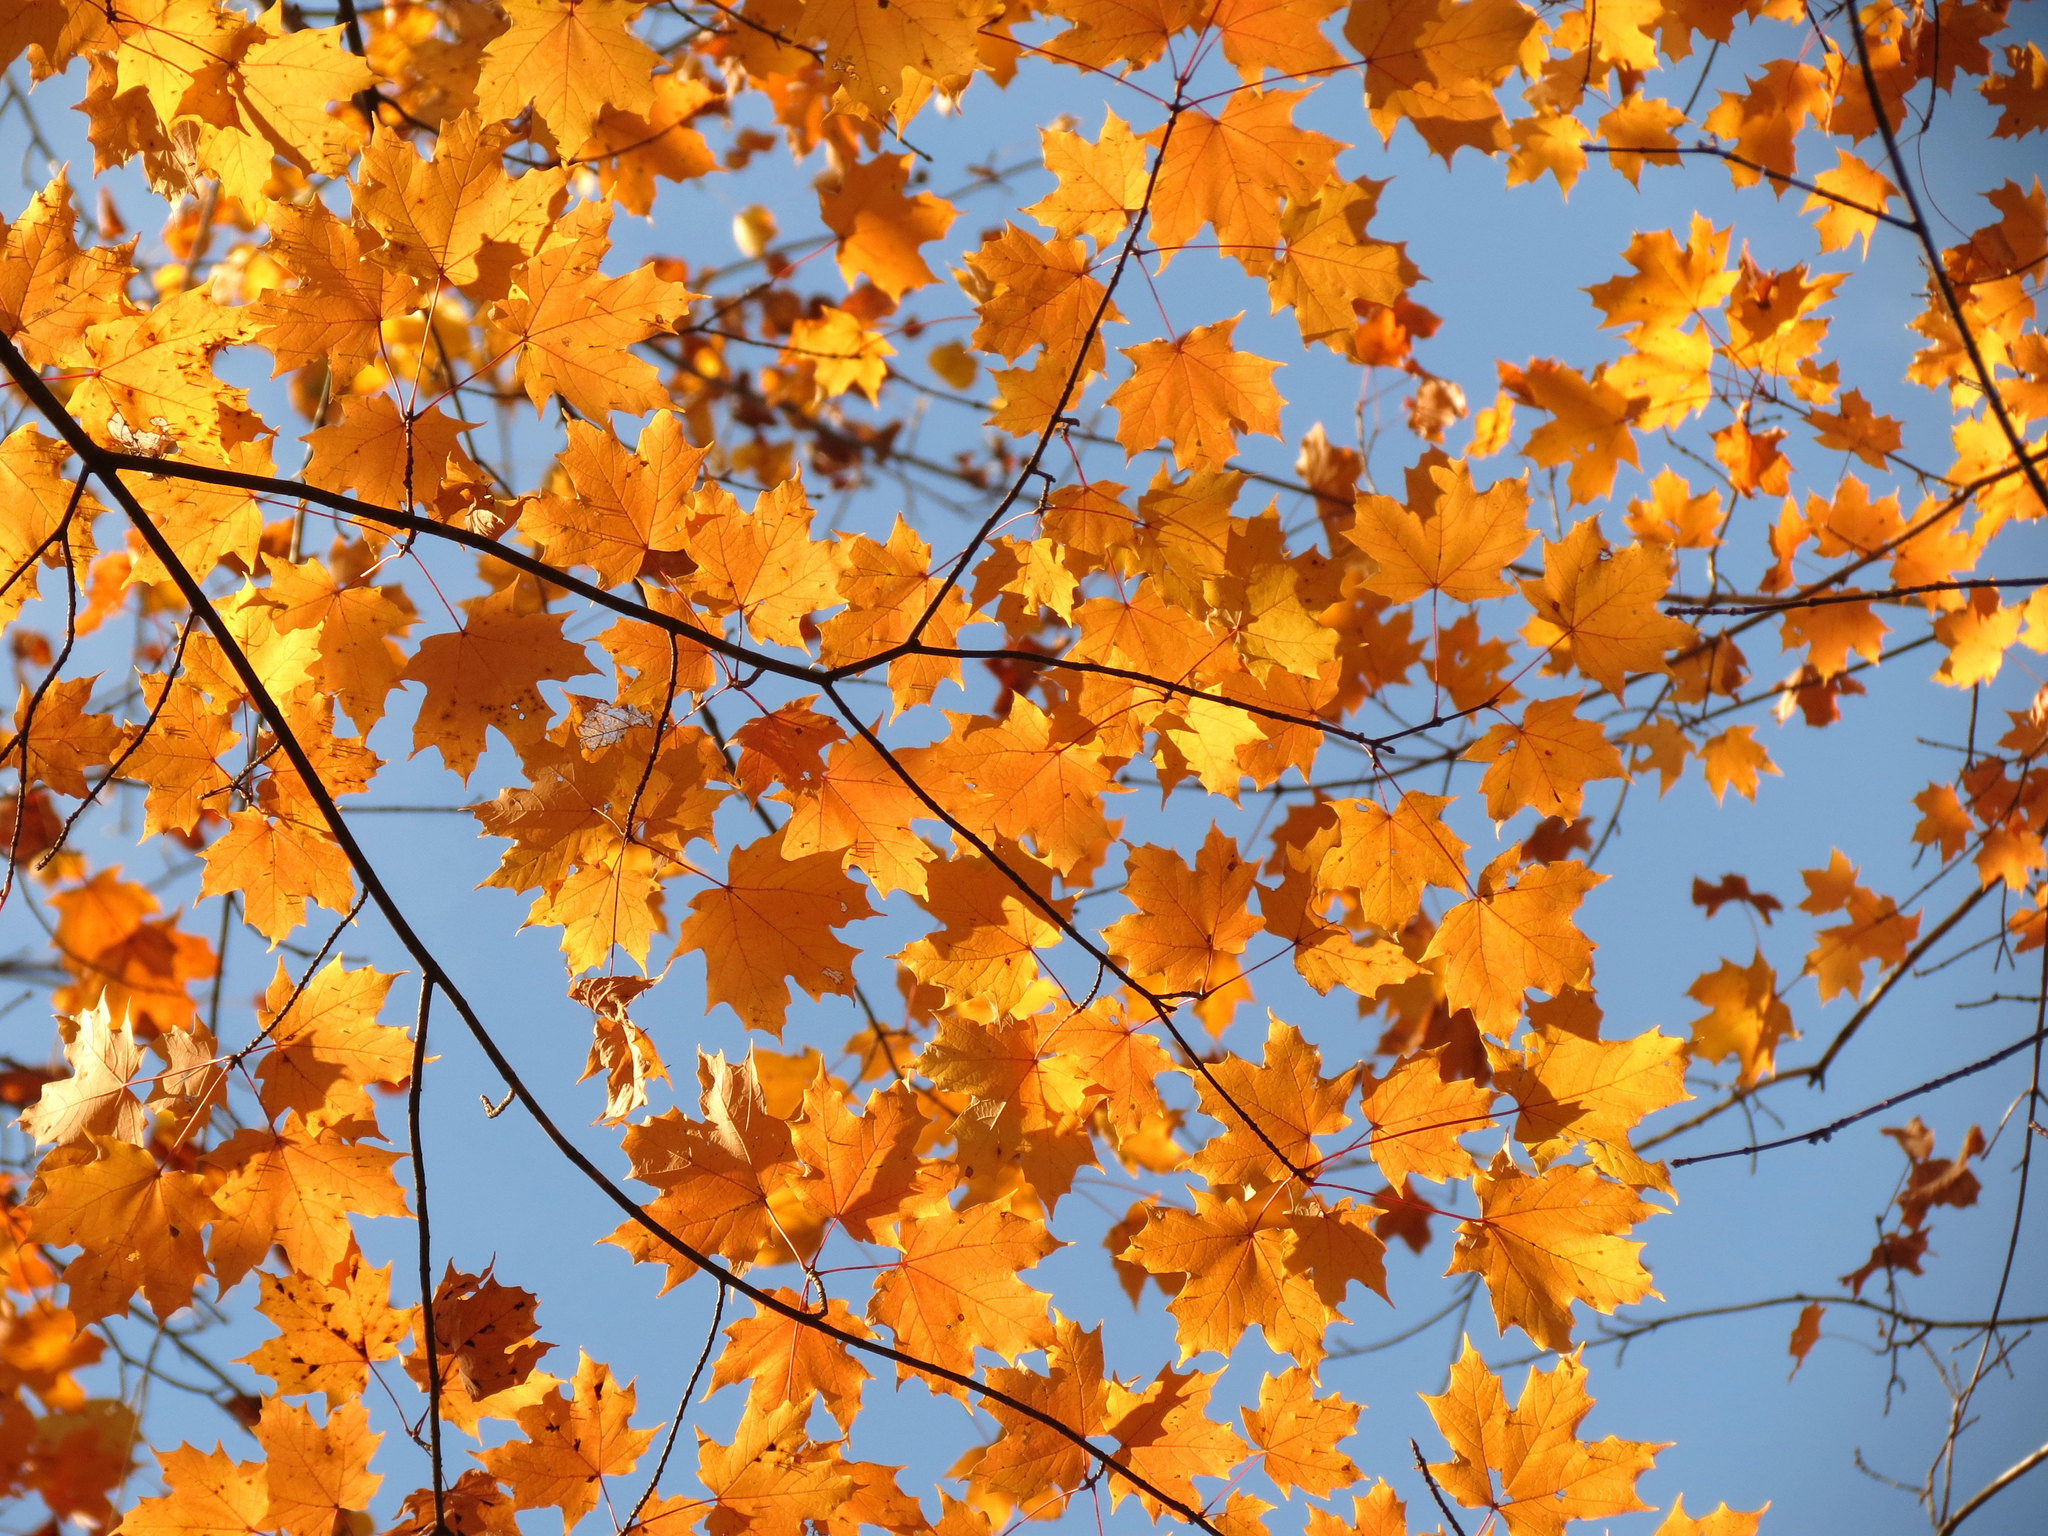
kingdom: Plantae
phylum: Tracheophyta
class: Magnoliopsida
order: Sapindales
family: Sapindaceae
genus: Acer
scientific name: Acer saccharum
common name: Sugar maple
